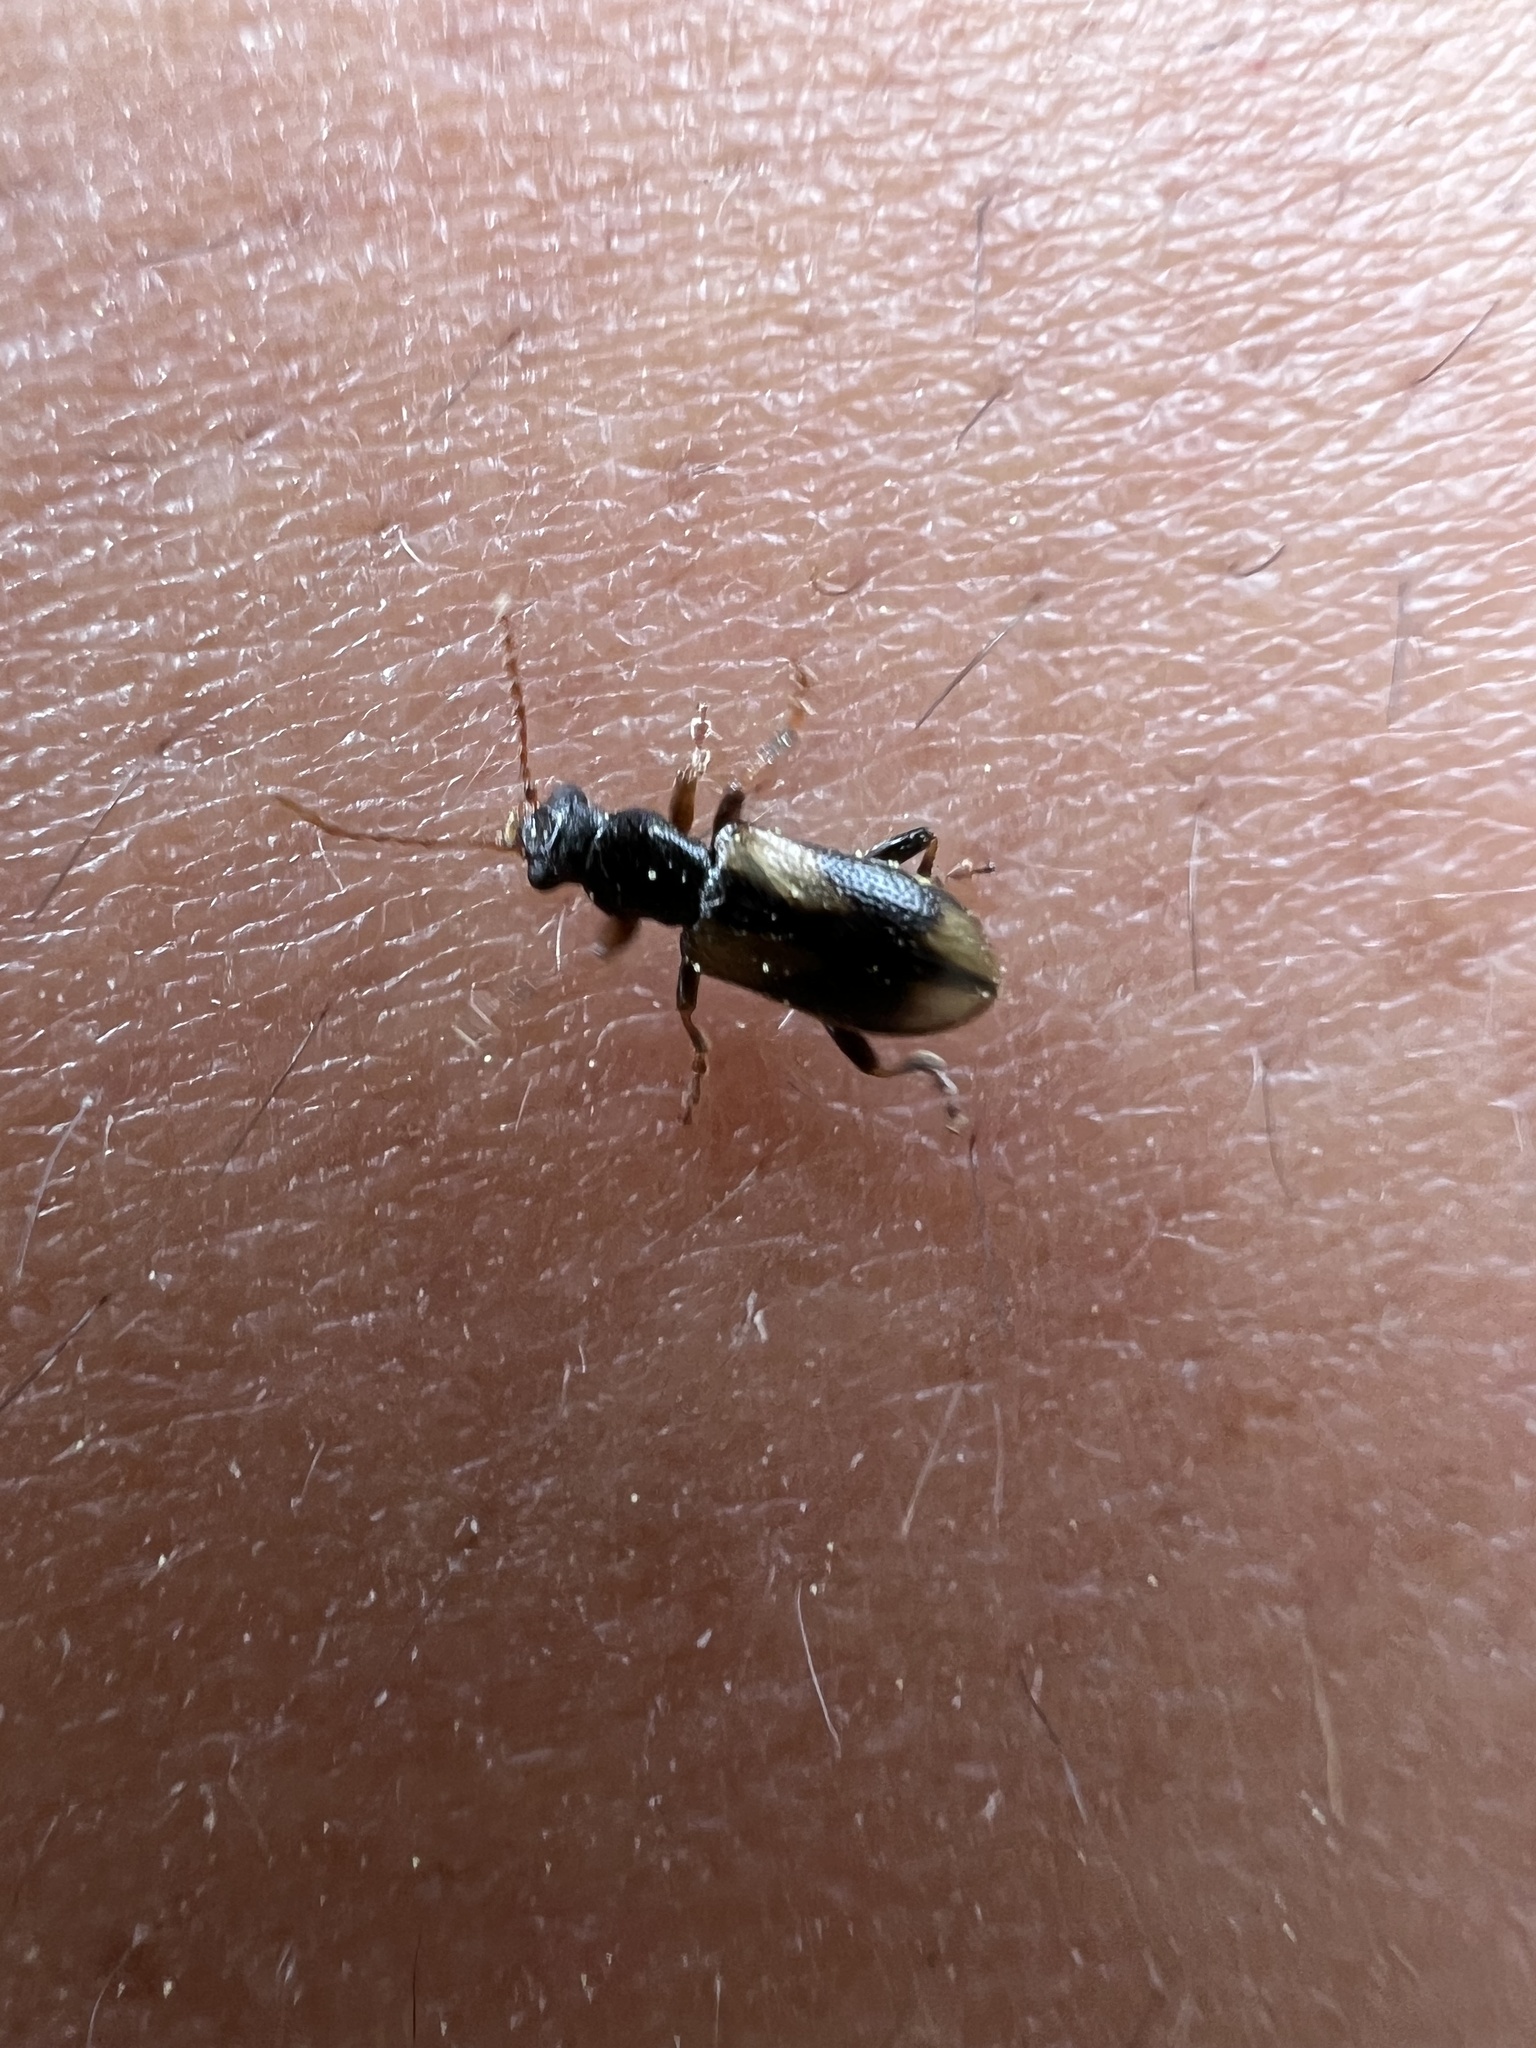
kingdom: Animalia
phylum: Arthropoda
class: Insecta
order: Coleoptera
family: Orsodacnidae
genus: Orsodacne
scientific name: Orsodacne atra
